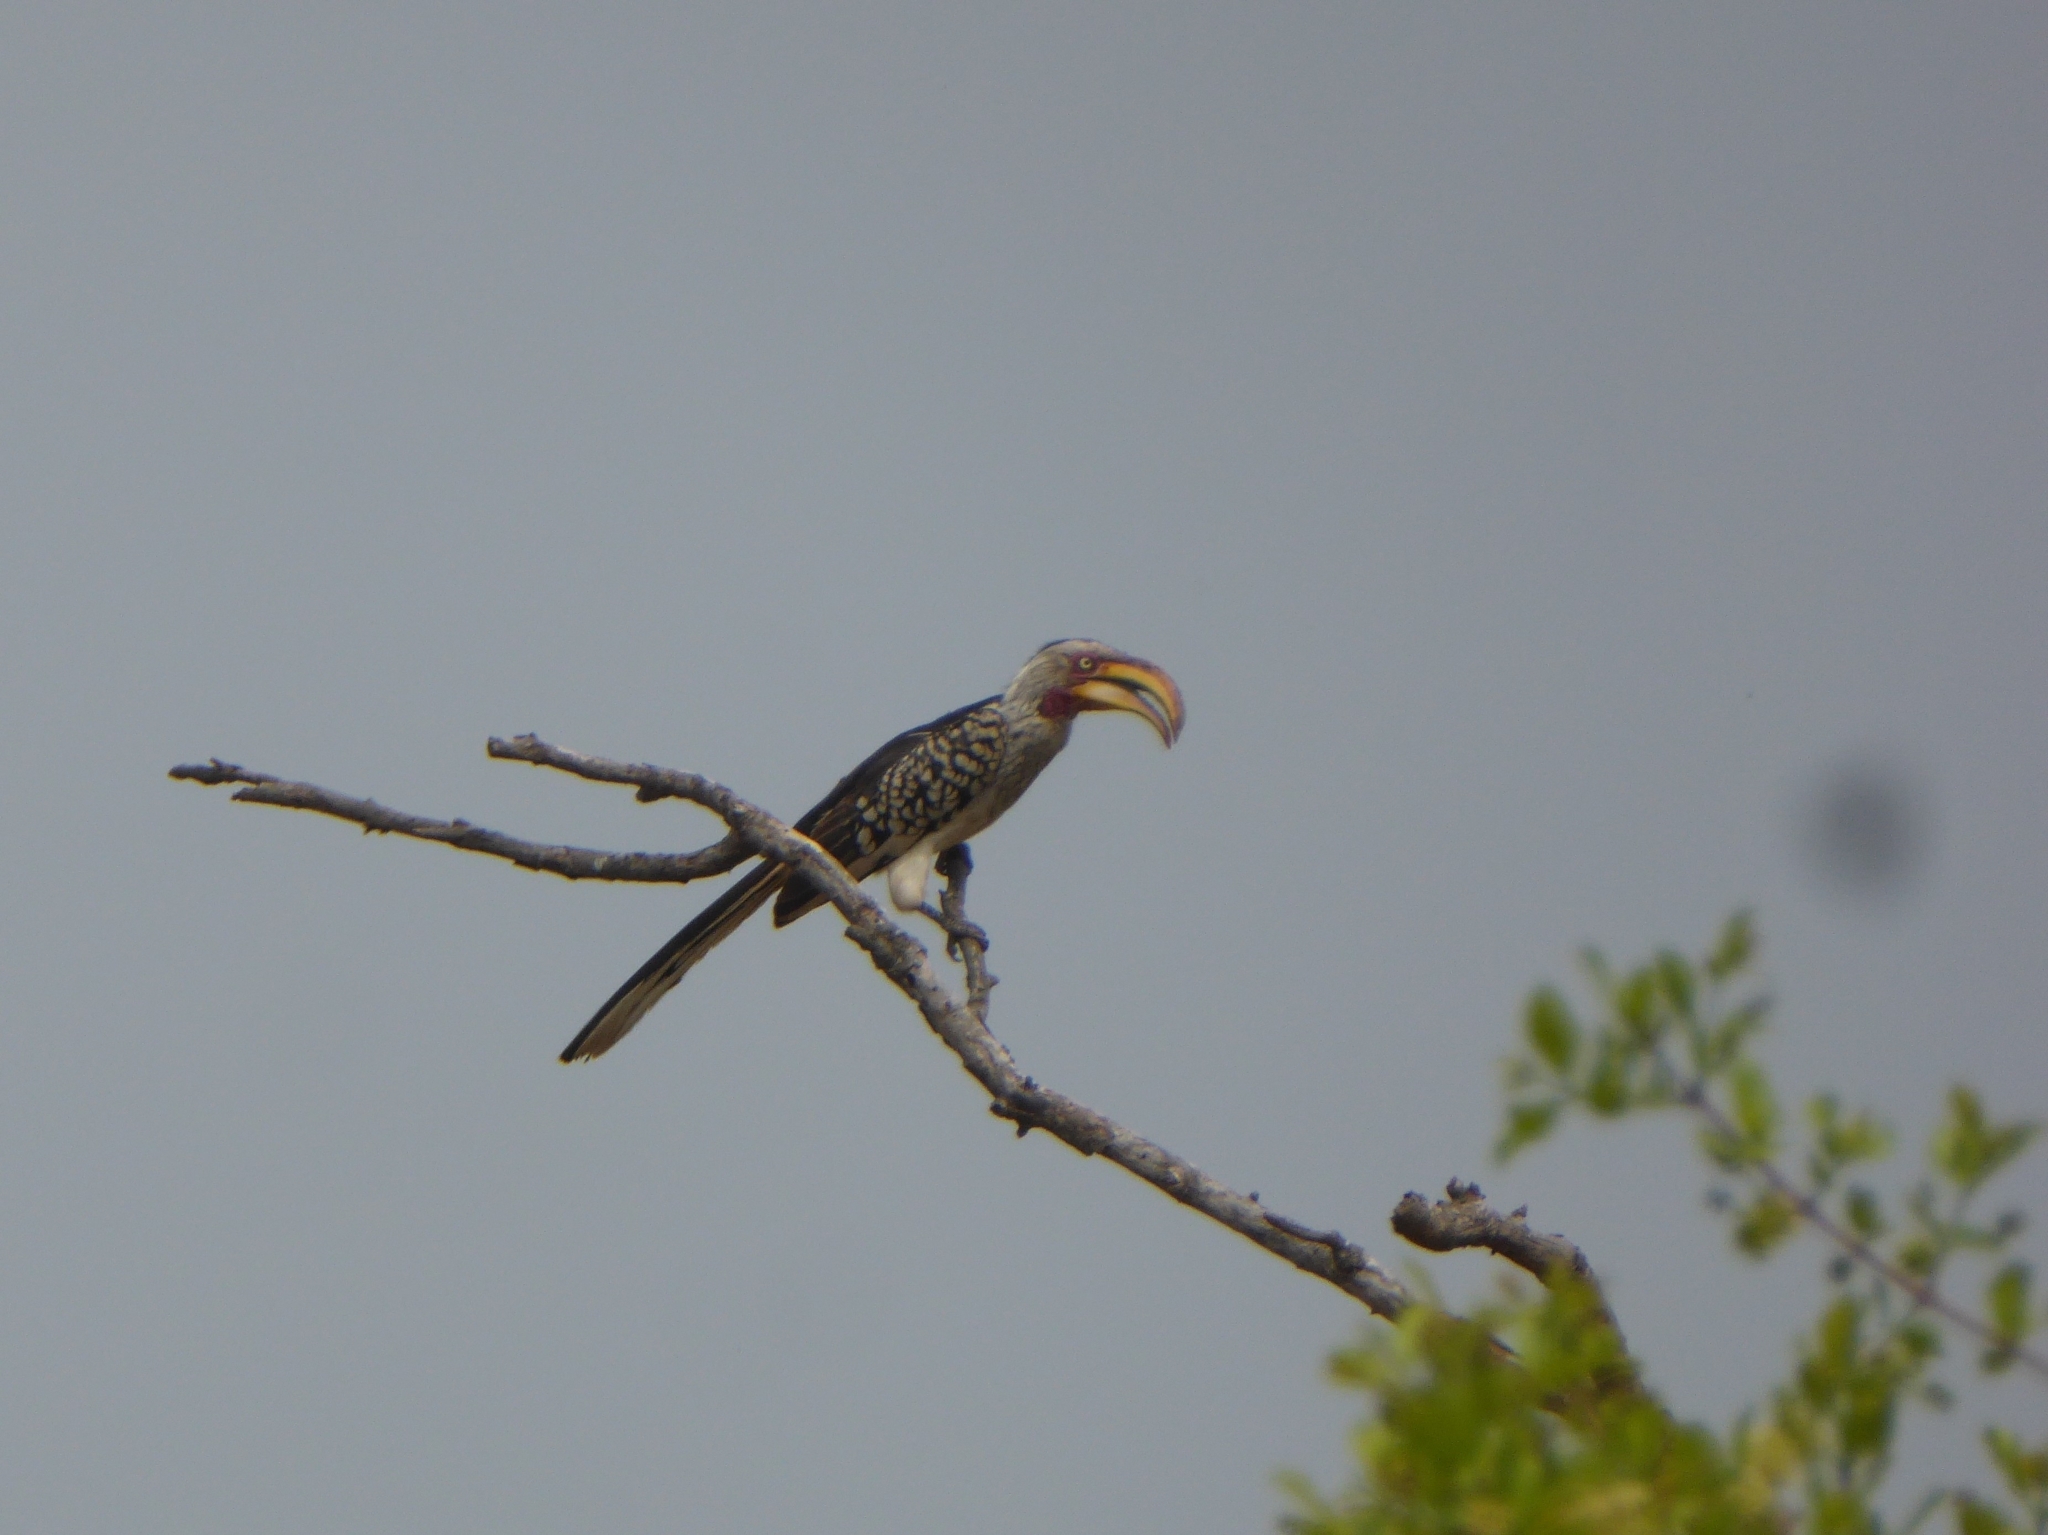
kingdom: Animalia
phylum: Chordata
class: Aves
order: Bucerotiformes
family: Bucerotidae
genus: Tockus
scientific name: Tockus leucomelas
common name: Southern yellow-billed hornbill
